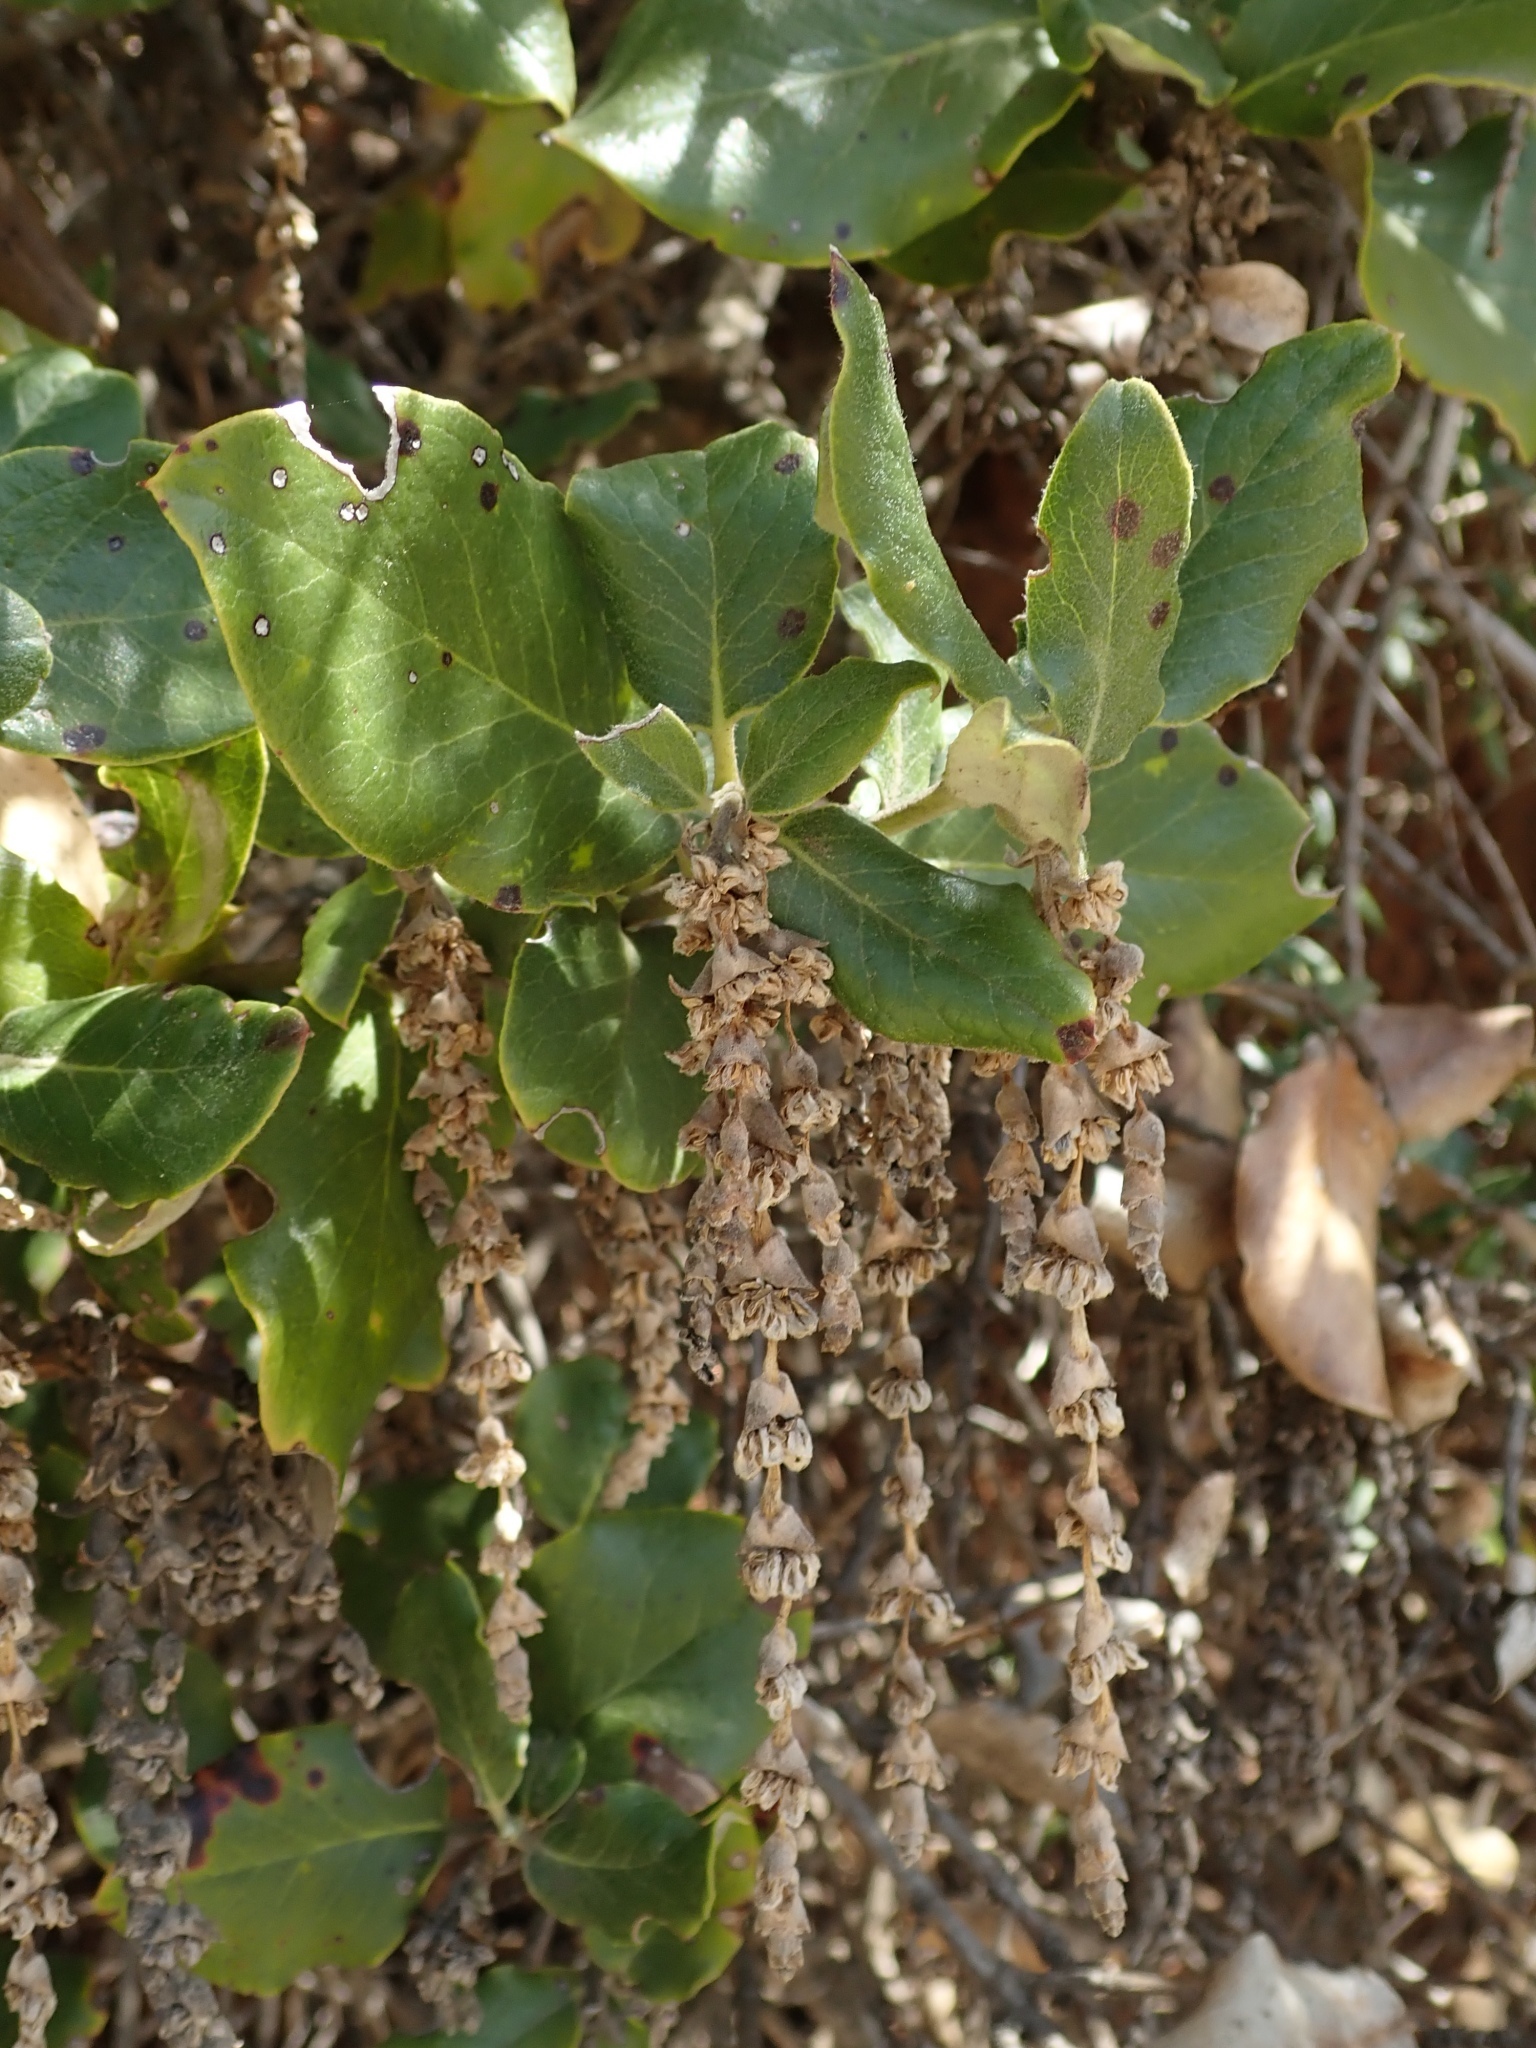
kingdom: Plantae
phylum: Tracheophyta
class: Magnoliopsida
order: Garryales
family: Garryaceae
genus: Garrya
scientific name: Garrya elliptica
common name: Silk-tassel
